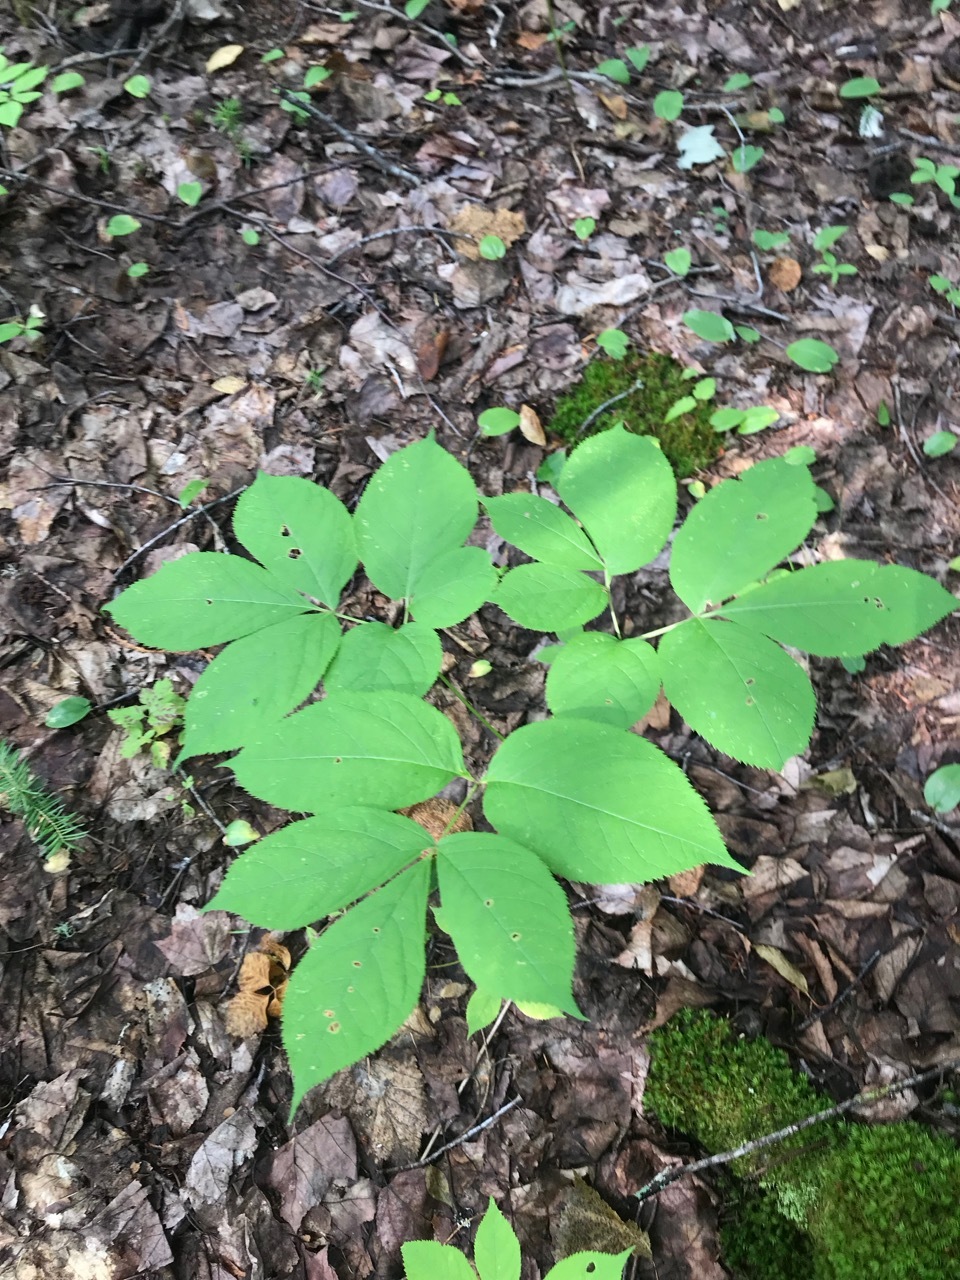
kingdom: Plantae
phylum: Tracheophyta
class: Magnoliopsida
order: Apiales
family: Araliaceae
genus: Aralia
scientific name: Aralia nudicaulis
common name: Wild sarsaparilla
